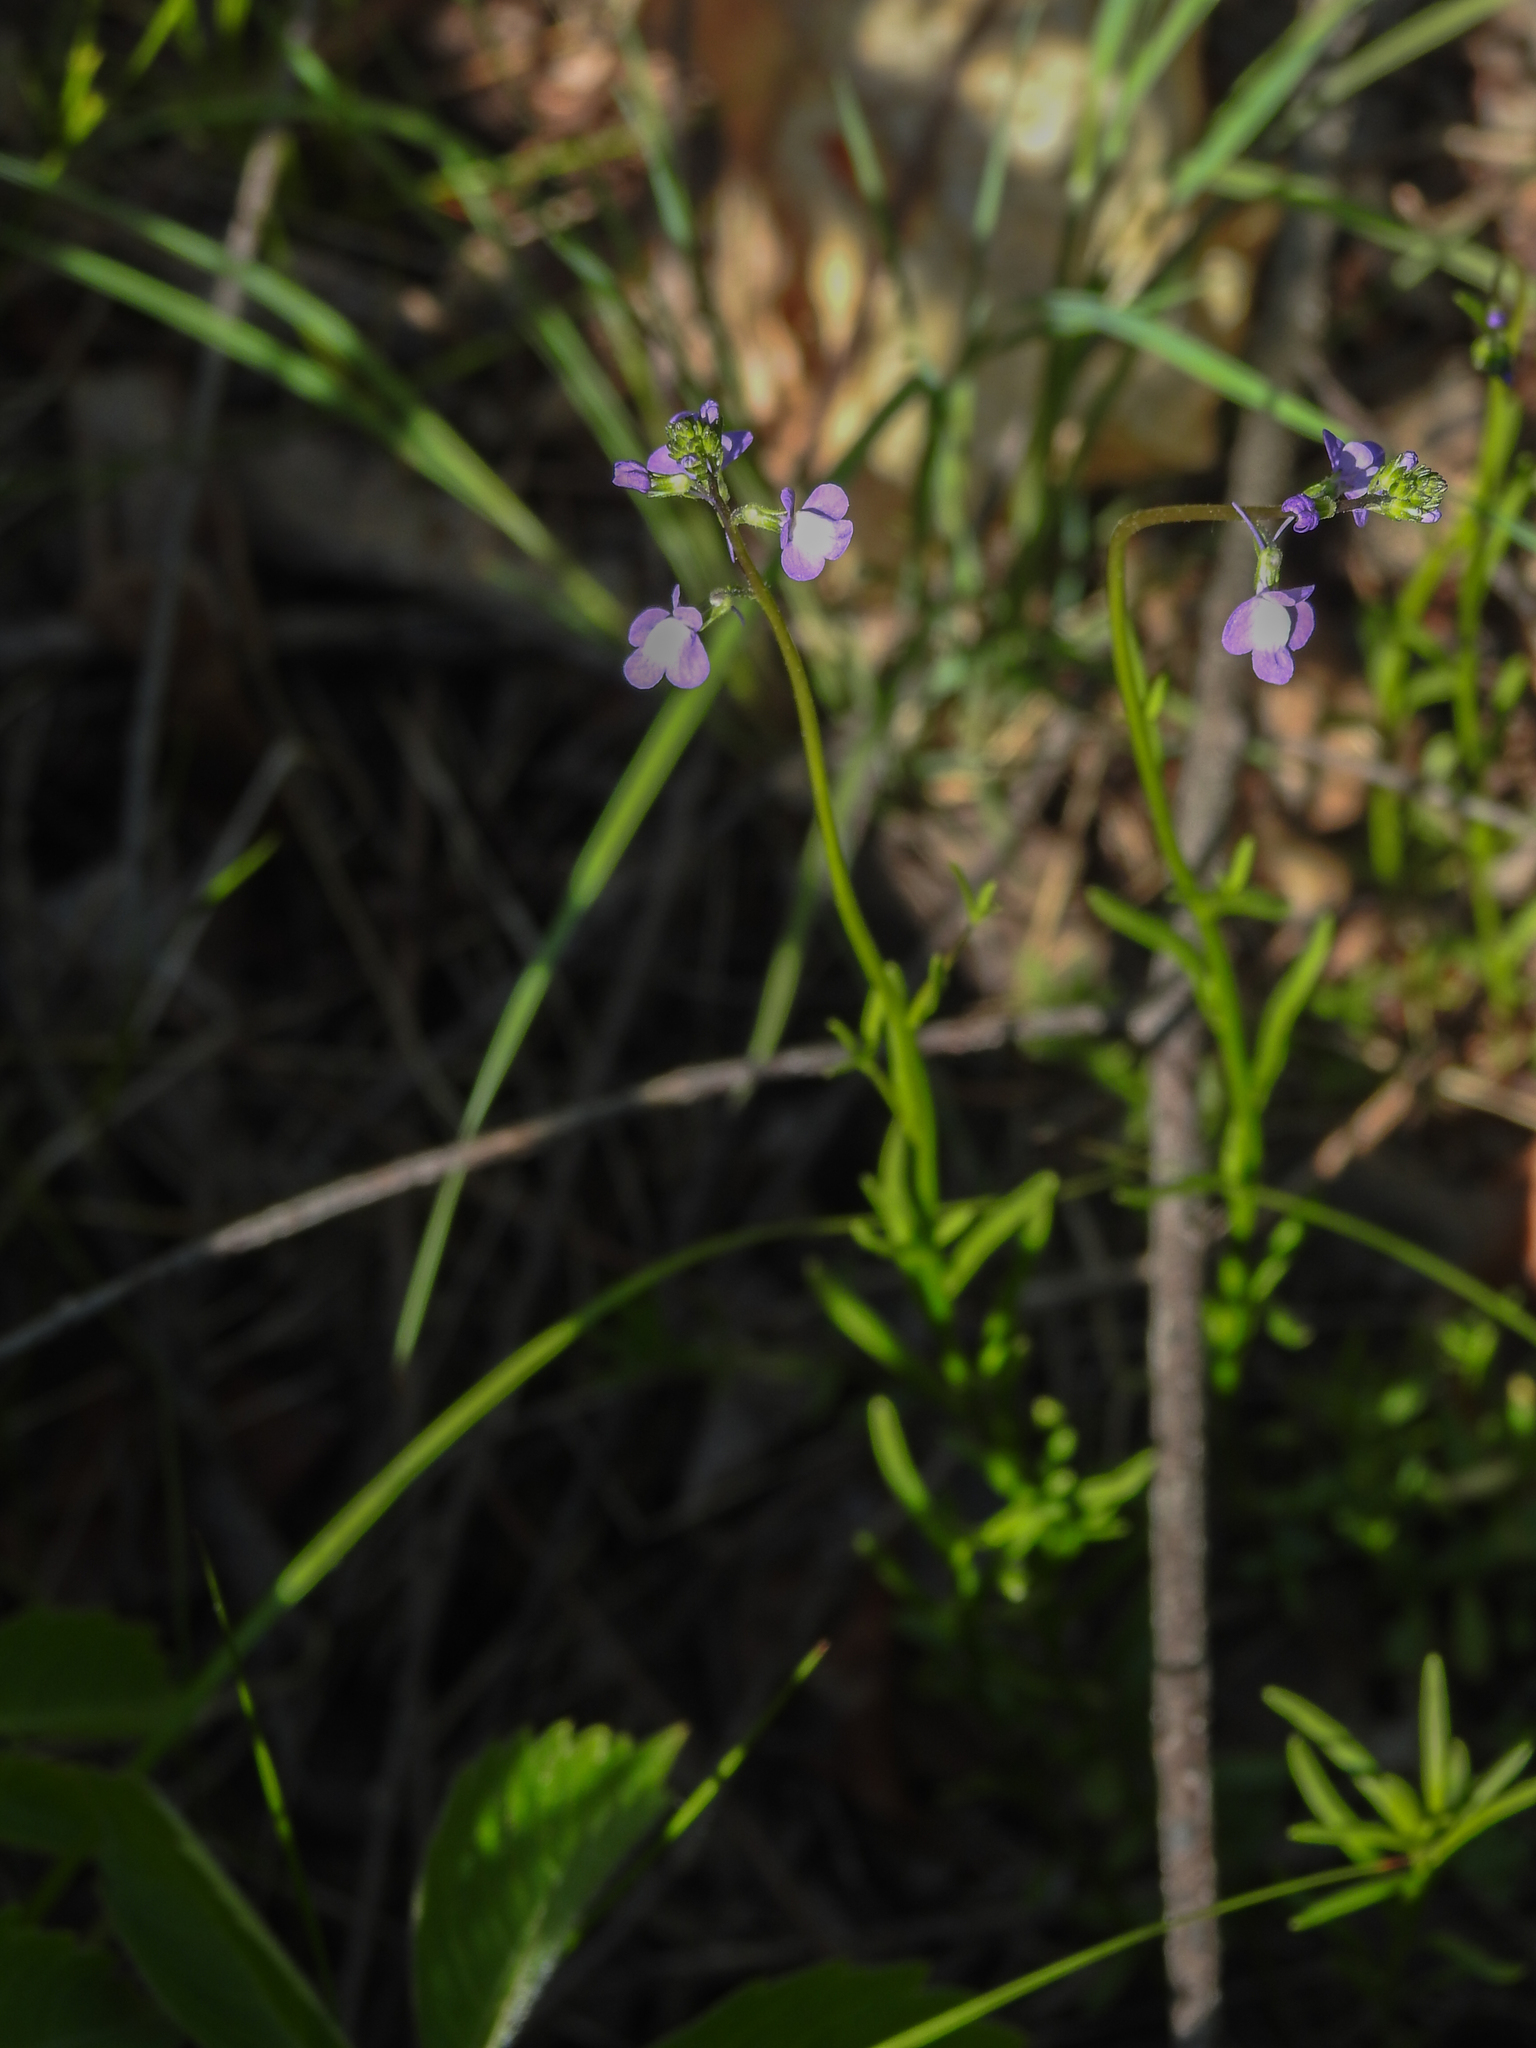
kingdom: Plantae
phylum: Tracheophyta
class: Magnoliopsida
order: Lamiales
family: Plantaginaceae
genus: Nuttallanthus
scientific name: Nuttallanthus canadensis
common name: Blue toadflax
